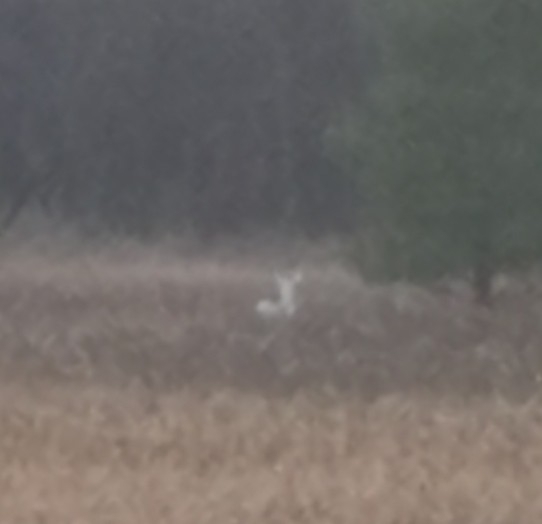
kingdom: Animalia
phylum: Chordata
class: Mammalia
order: Artiodactyla
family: Cervidae
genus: Odocoileus
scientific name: Odocoileus virginianus
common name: White-tailed deer
